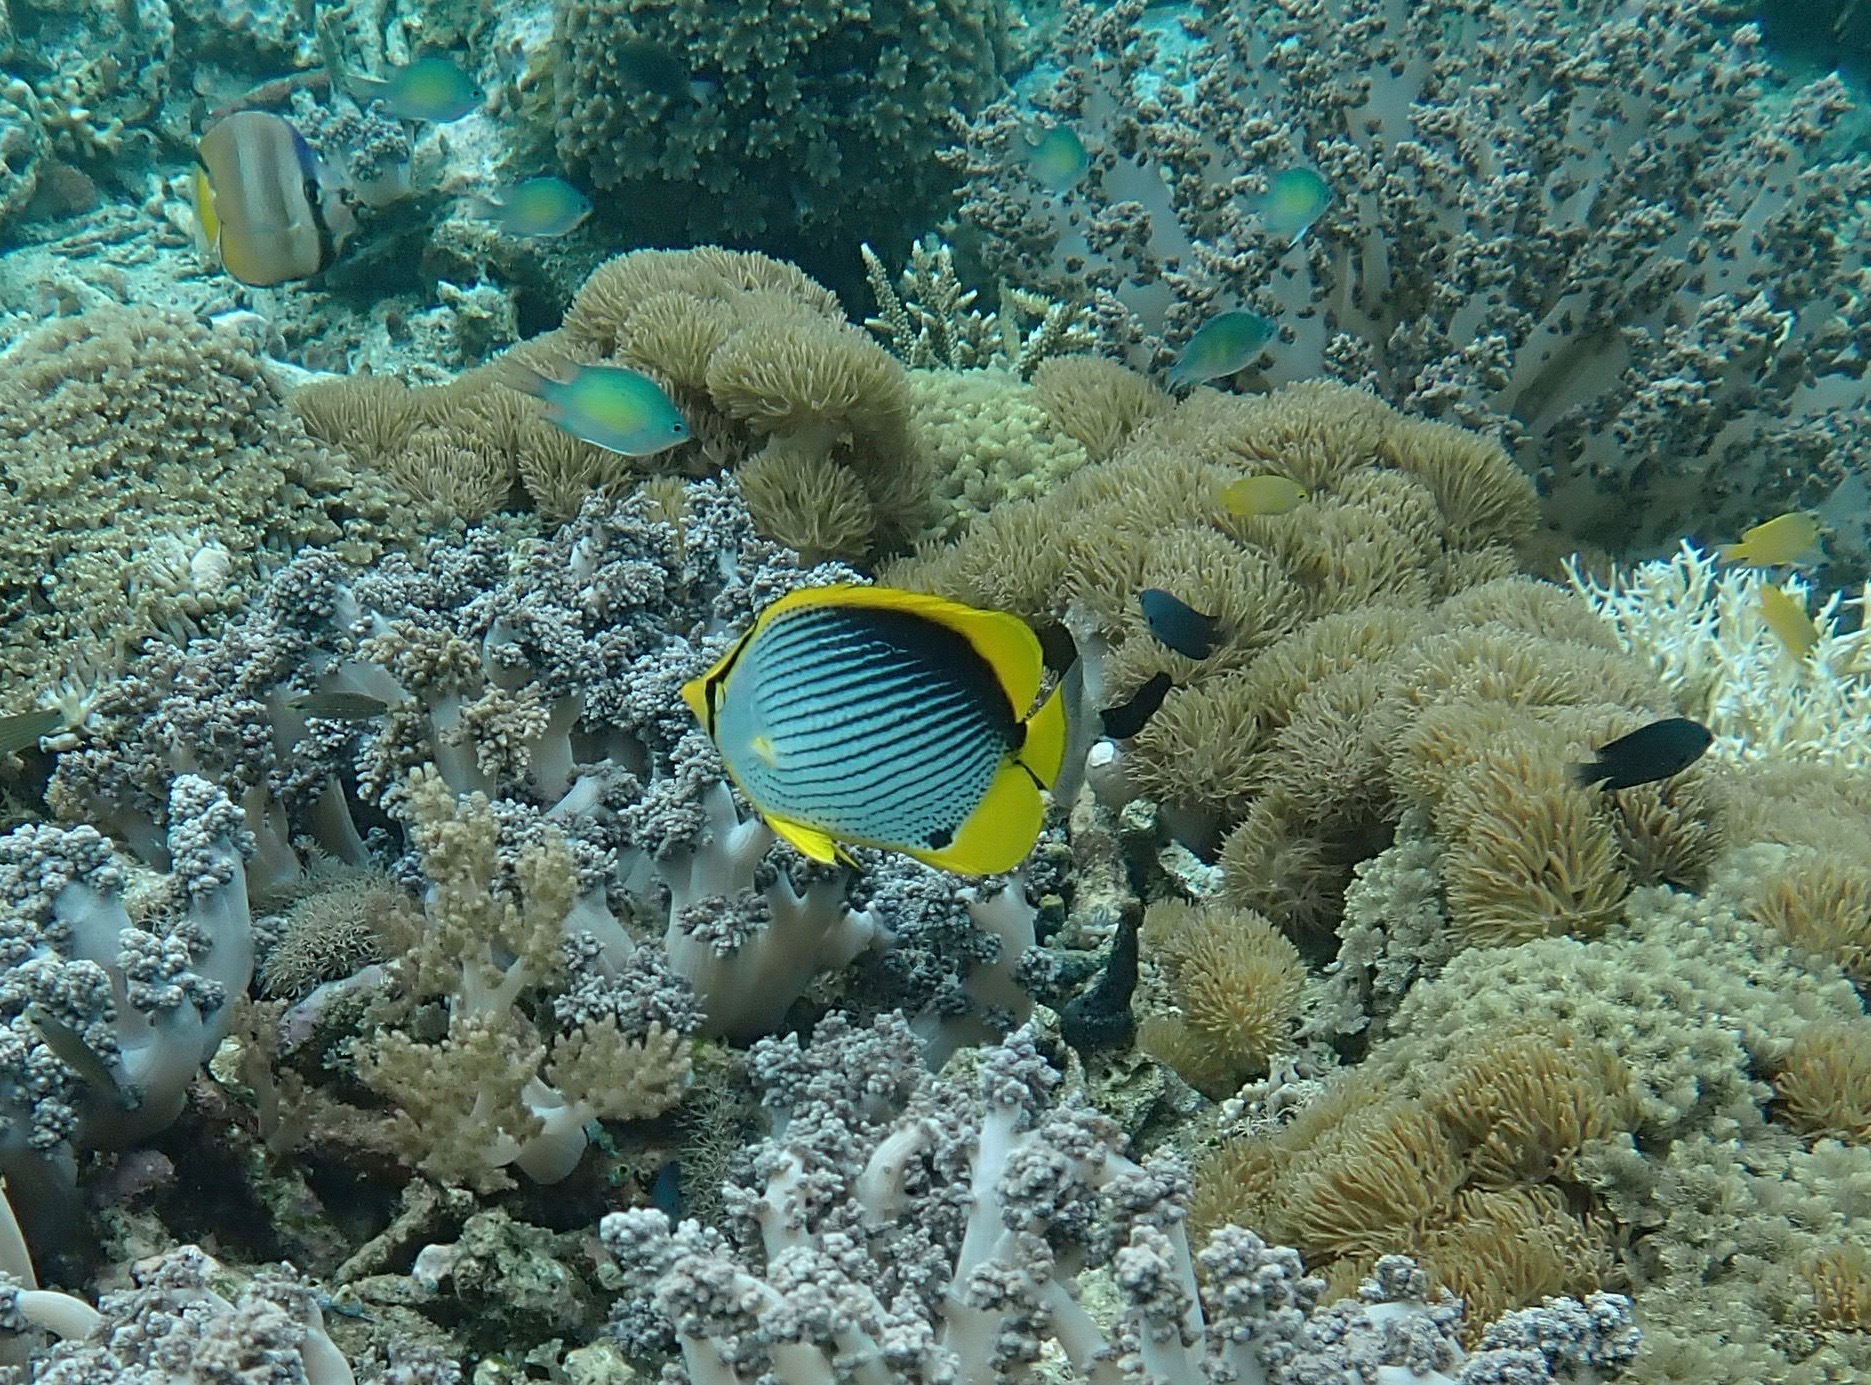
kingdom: Animalia
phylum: Chordata
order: Perciformes
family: Chaetodontidae
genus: Chaetodon
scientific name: Chaetodon melannotus
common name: Blackback butterflyfish
